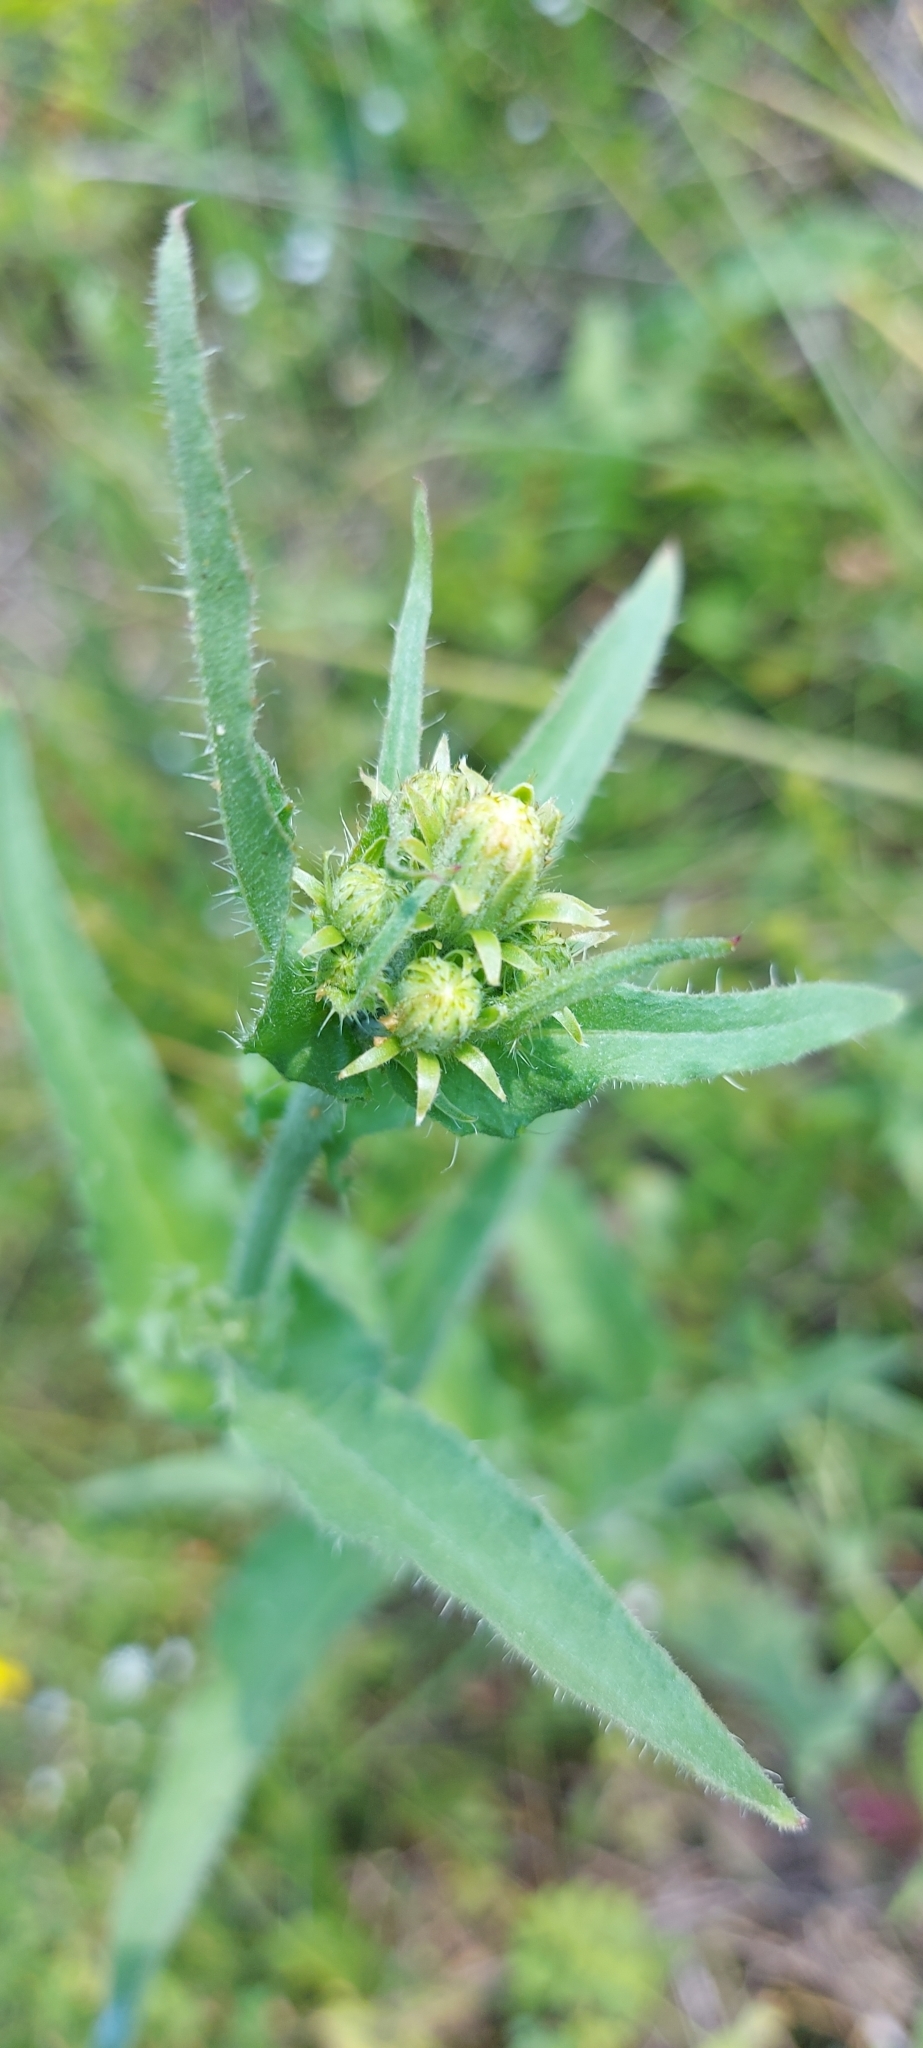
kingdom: Plantae
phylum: Tracheophyta
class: Magnoliopsida
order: Asterales
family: Asteraceae
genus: Picris
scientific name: Picris hieracioides
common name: Hawkweed oxtongue
